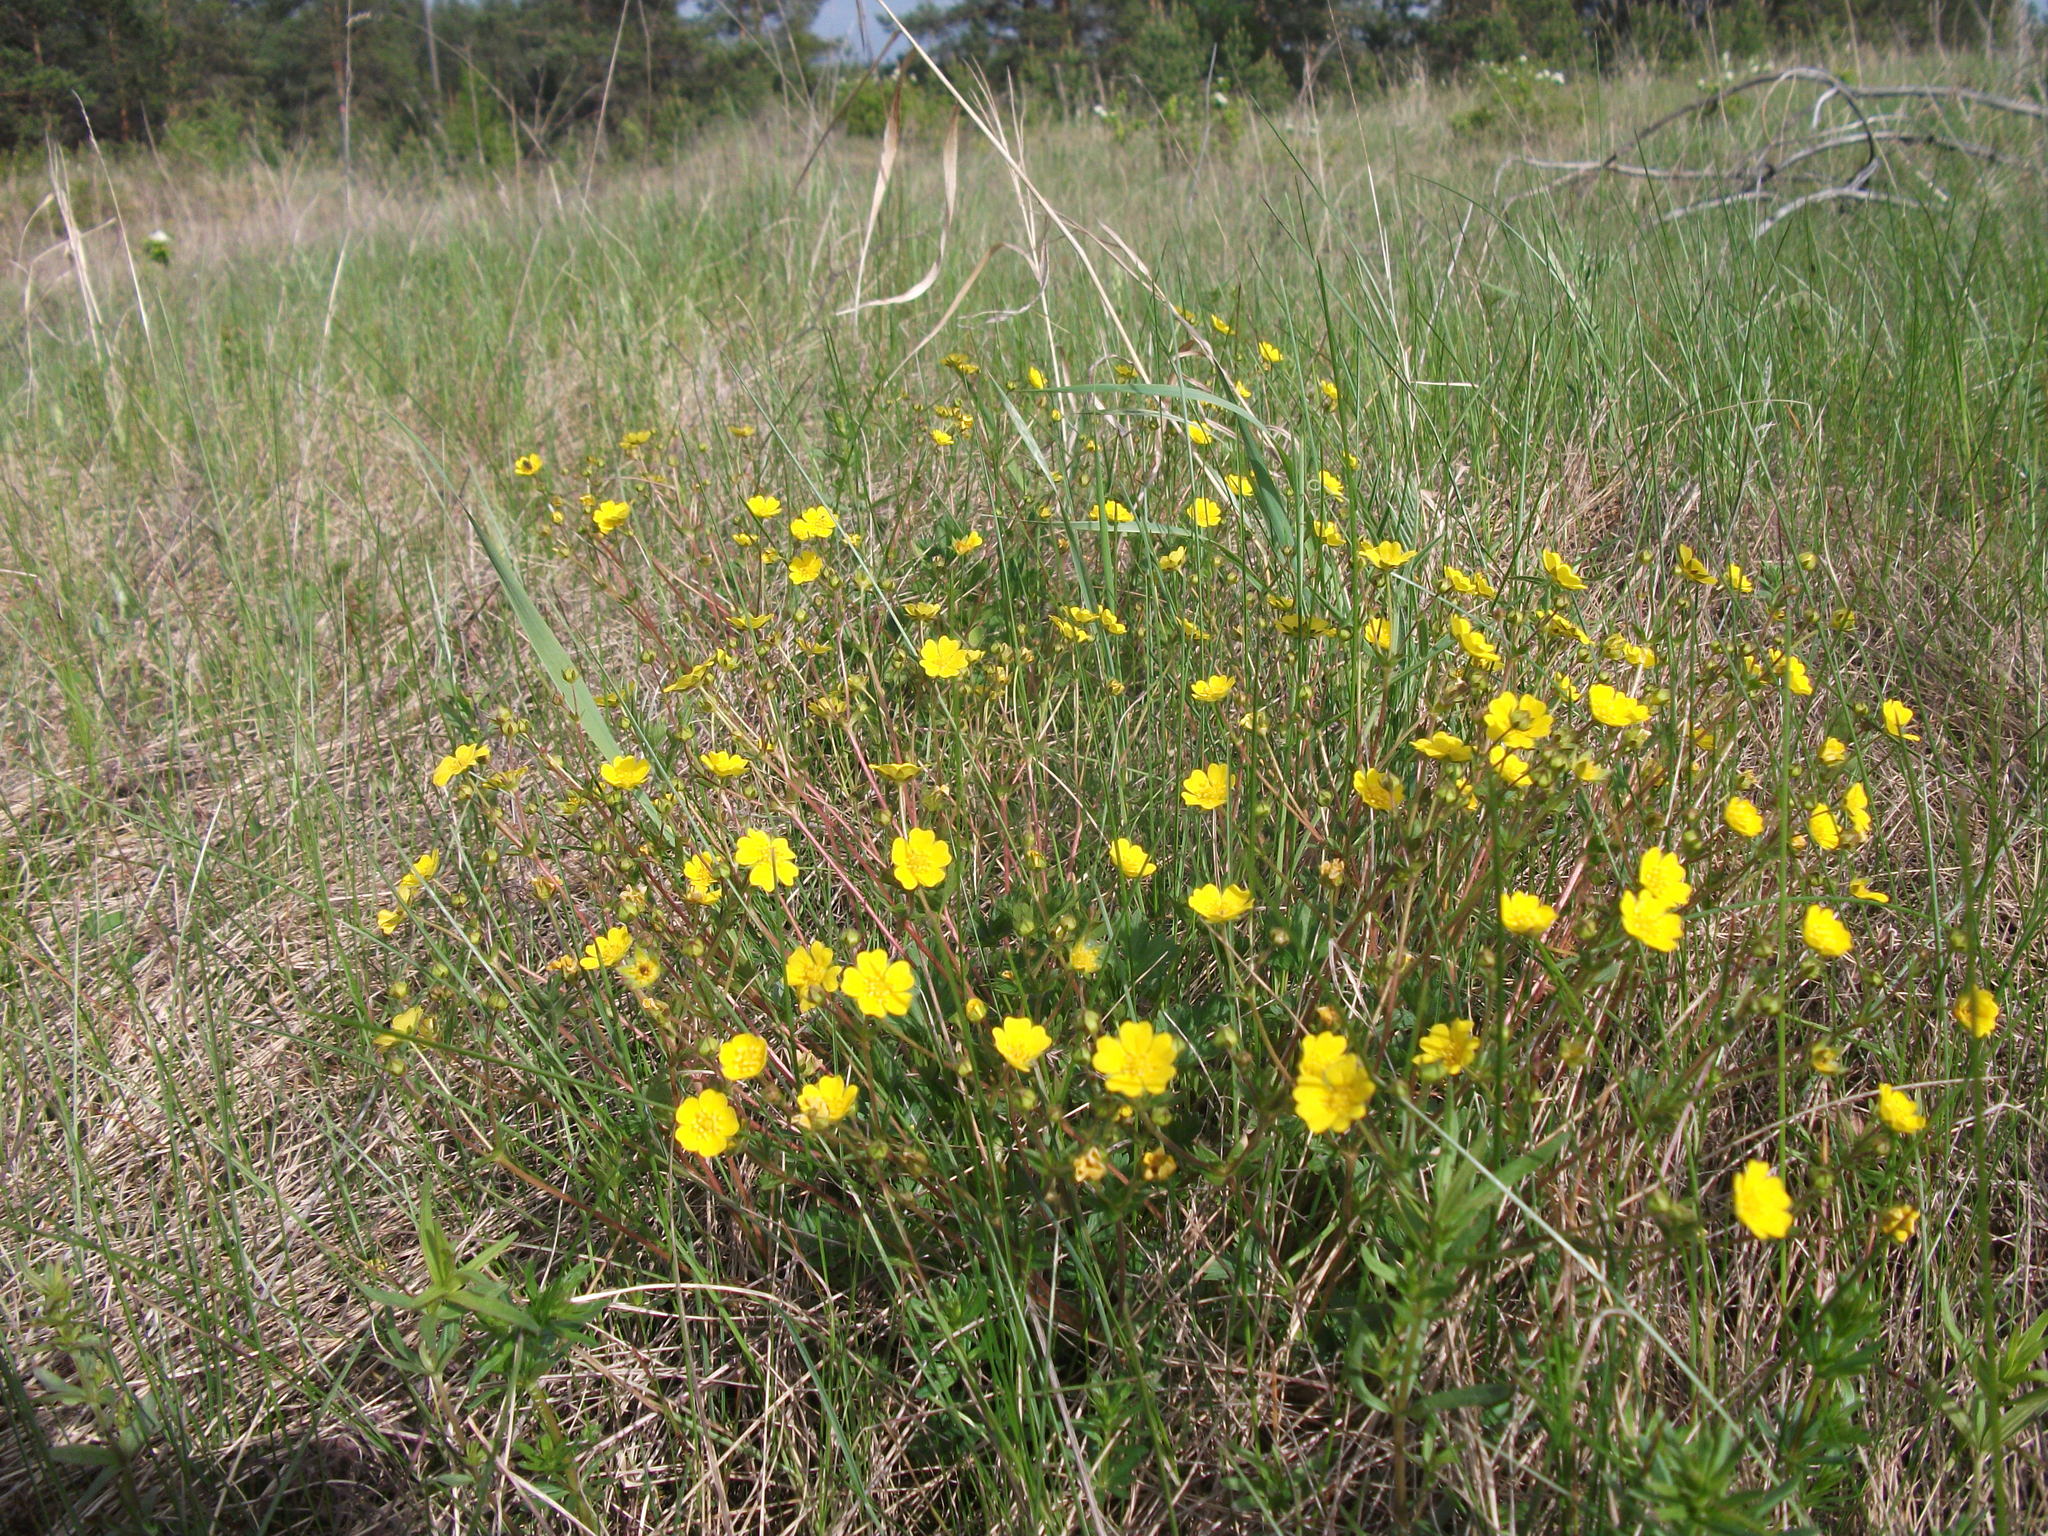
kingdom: Plantae
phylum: Tracheophyta
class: Magnoliopsida
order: Rosales
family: Rosaceae
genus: Potentilla
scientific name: Potentilla crantzii
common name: Alpine cinquefoil
